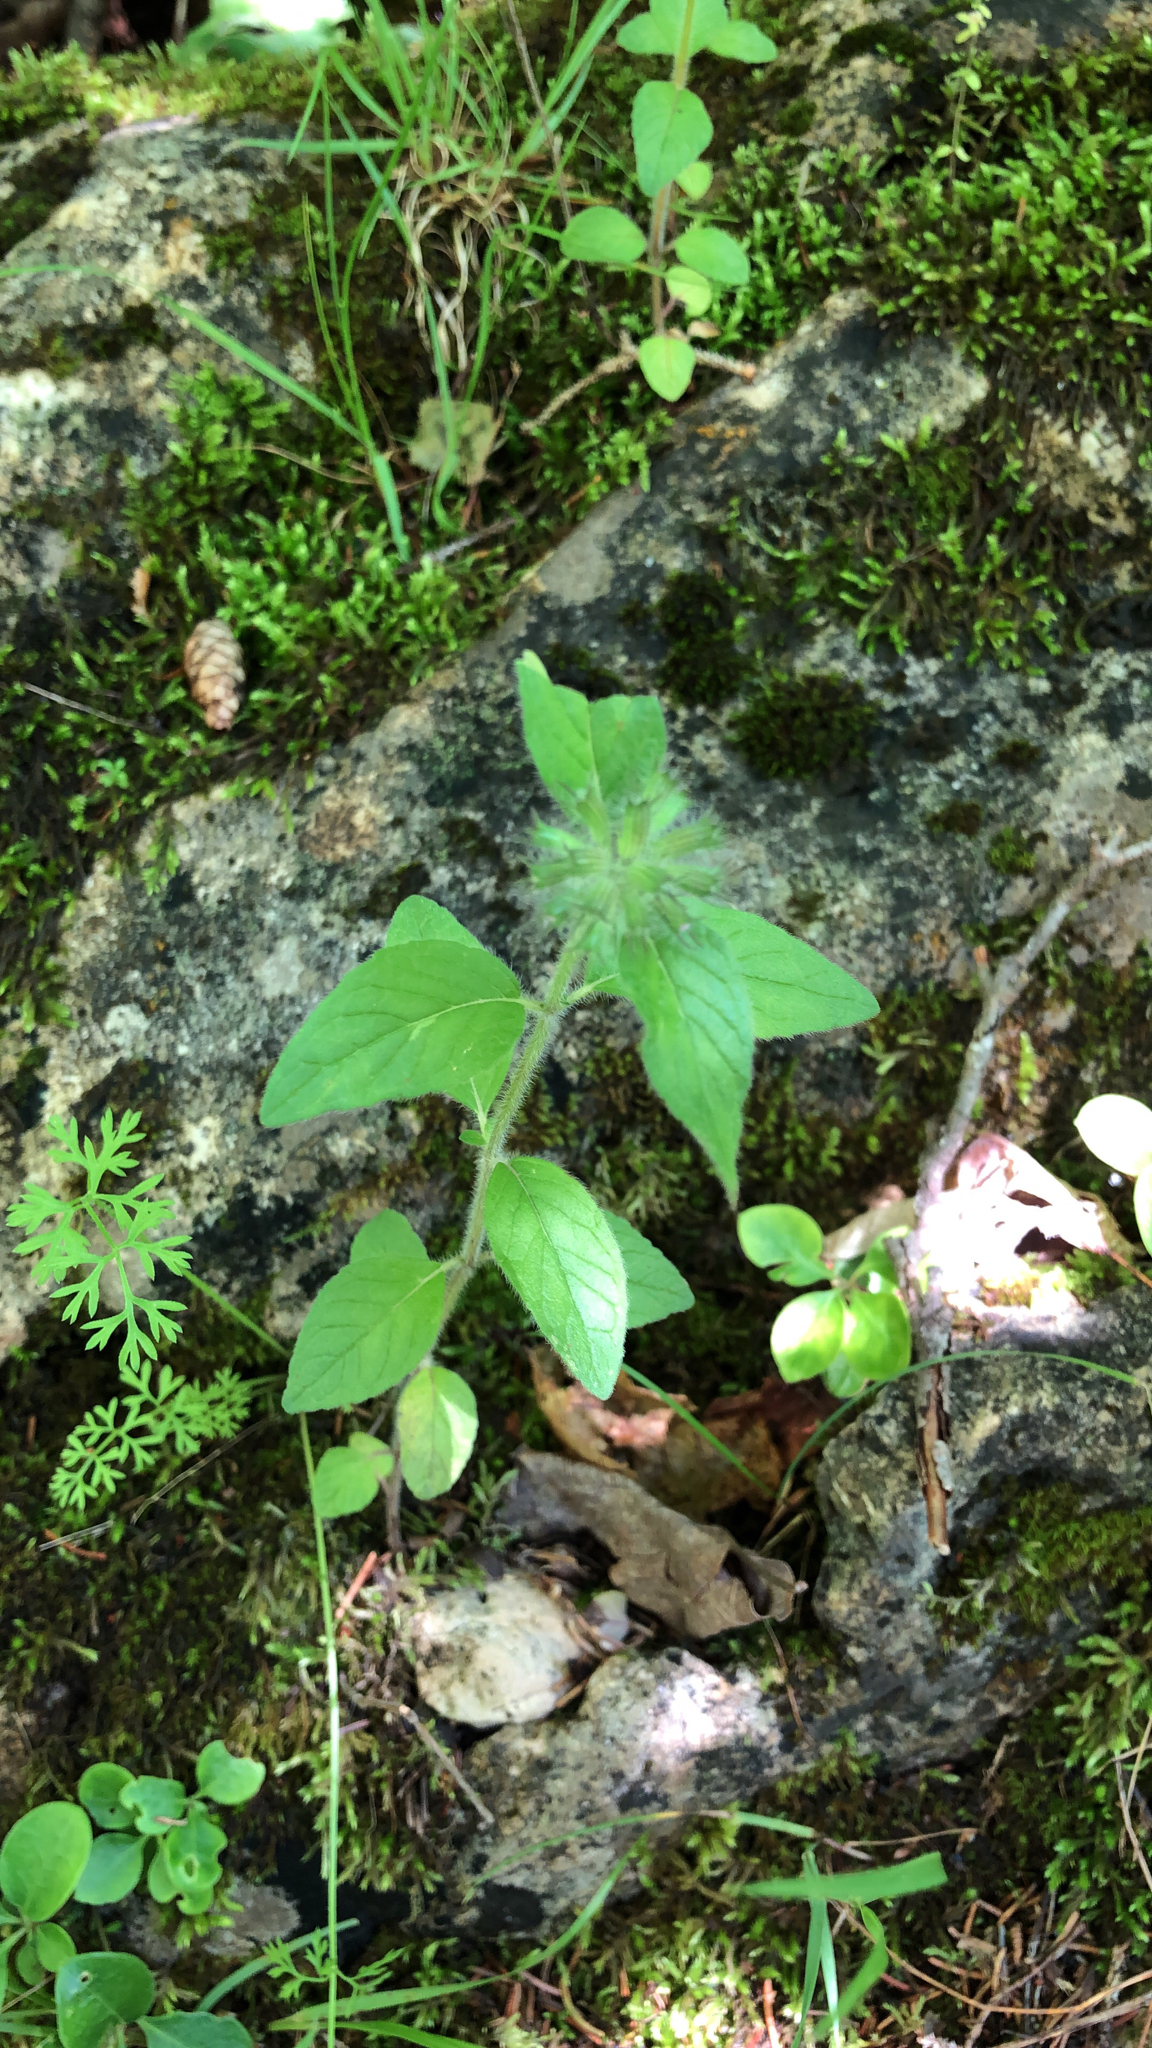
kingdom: Plantae
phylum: Tracheophyta
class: Magnoliopsida
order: Lamiales
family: Lamiaceae
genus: Clinopodium
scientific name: Clinopodium vulgare
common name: Wild basil
